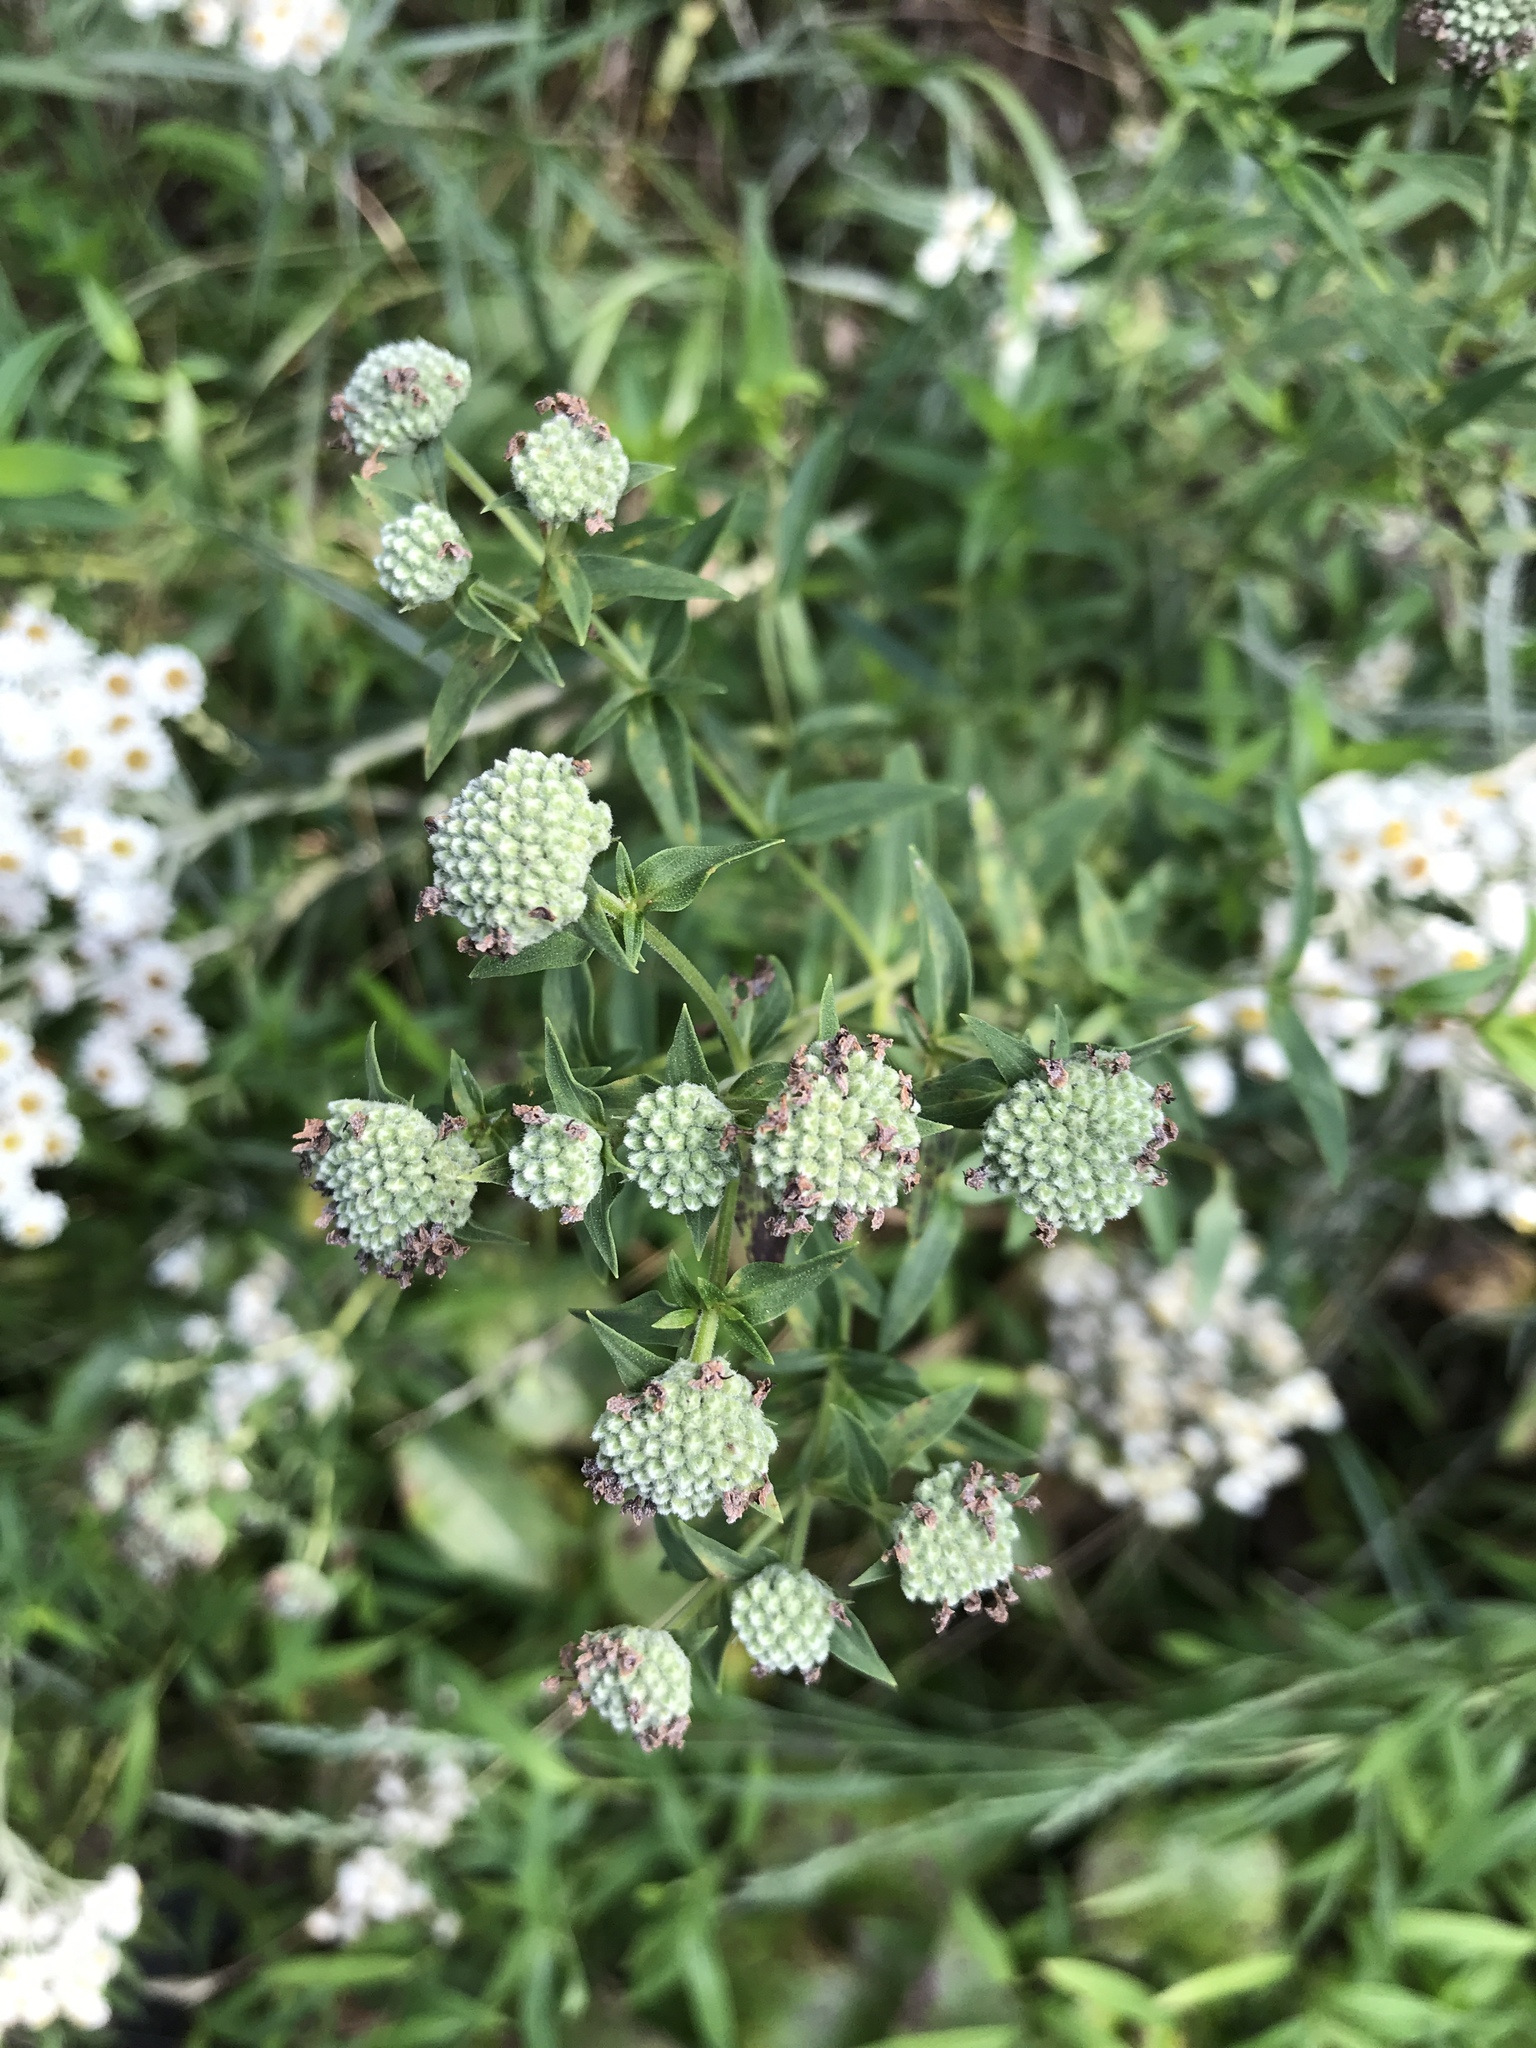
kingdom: Plantae
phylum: Tracheophyta
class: Magnoliopsida
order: Lamiales
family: Lamiaceae
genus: Pycnanthemum
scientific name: Pycnanthemum verticillatum
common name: Whorled mountain-mint
